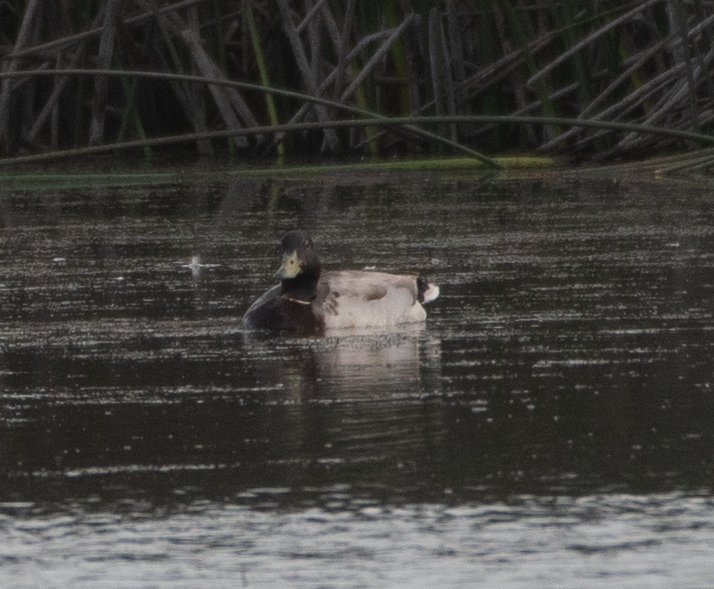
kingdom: Animalia
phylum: Chordata
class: Aves
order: Anseriformes
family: Anatidae
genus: Anas
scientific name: Anas platyrhynchos
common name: Mallard
